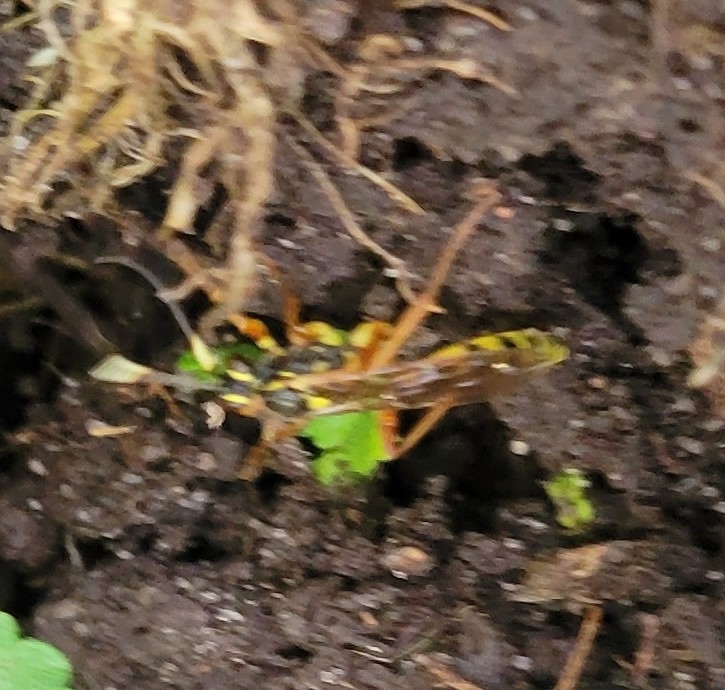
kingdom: Animalia
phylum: Arthropoda
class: Insecta
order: Hymenoptera
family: Ichneumonidae
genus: Setanta
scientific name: Setanta compta
